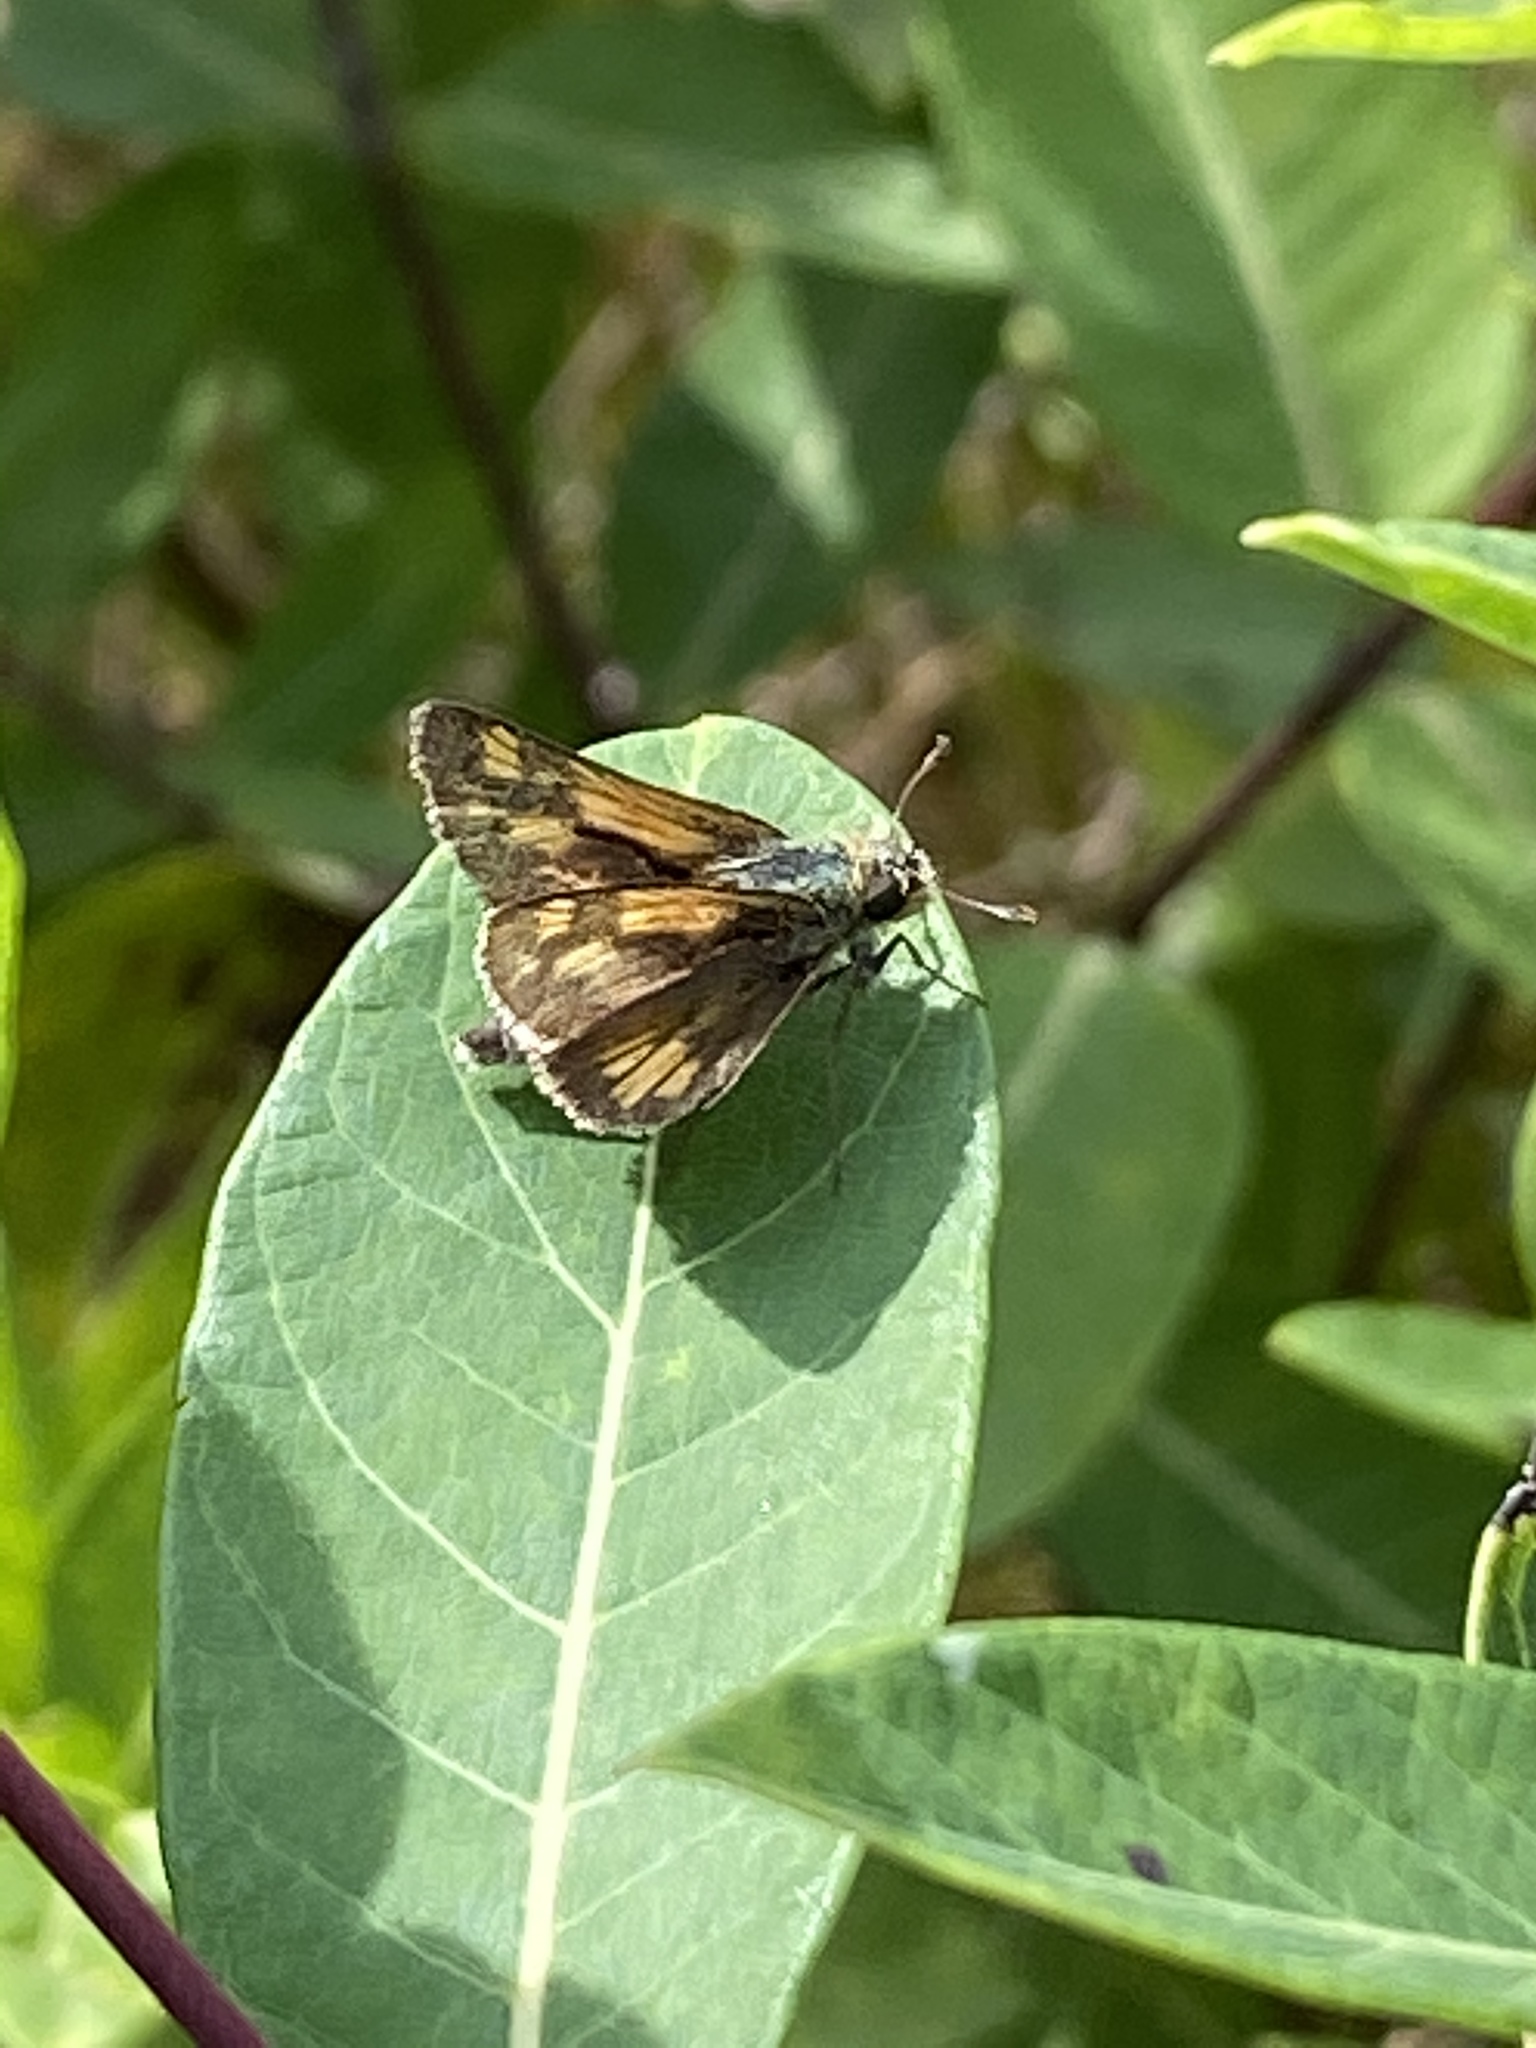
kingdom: Animalia
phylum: Arthropoda
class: Insecta
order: Lepidoptera
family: Hesperiidae
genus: Polites
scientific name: Polites coras
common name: Peck's skipper
